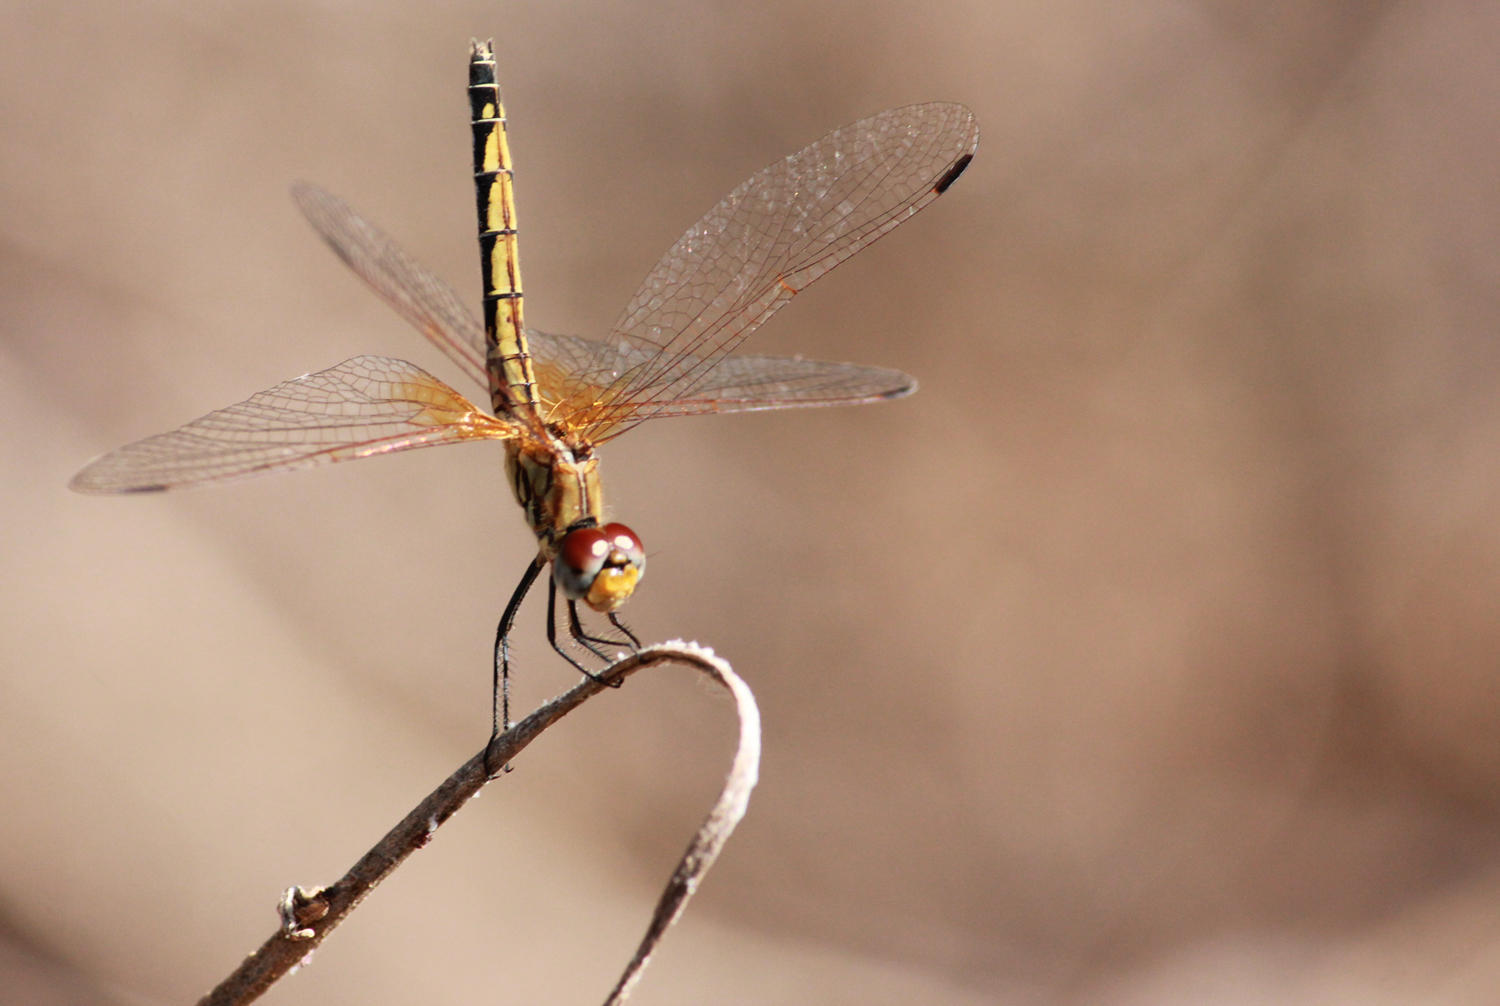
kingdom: Animalia
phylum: Arthropoda
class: Insecta
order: Odonata
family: Libellulidae
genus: Trithemis
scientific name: Trithemis arteriosa
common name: Red-veined dropwing
